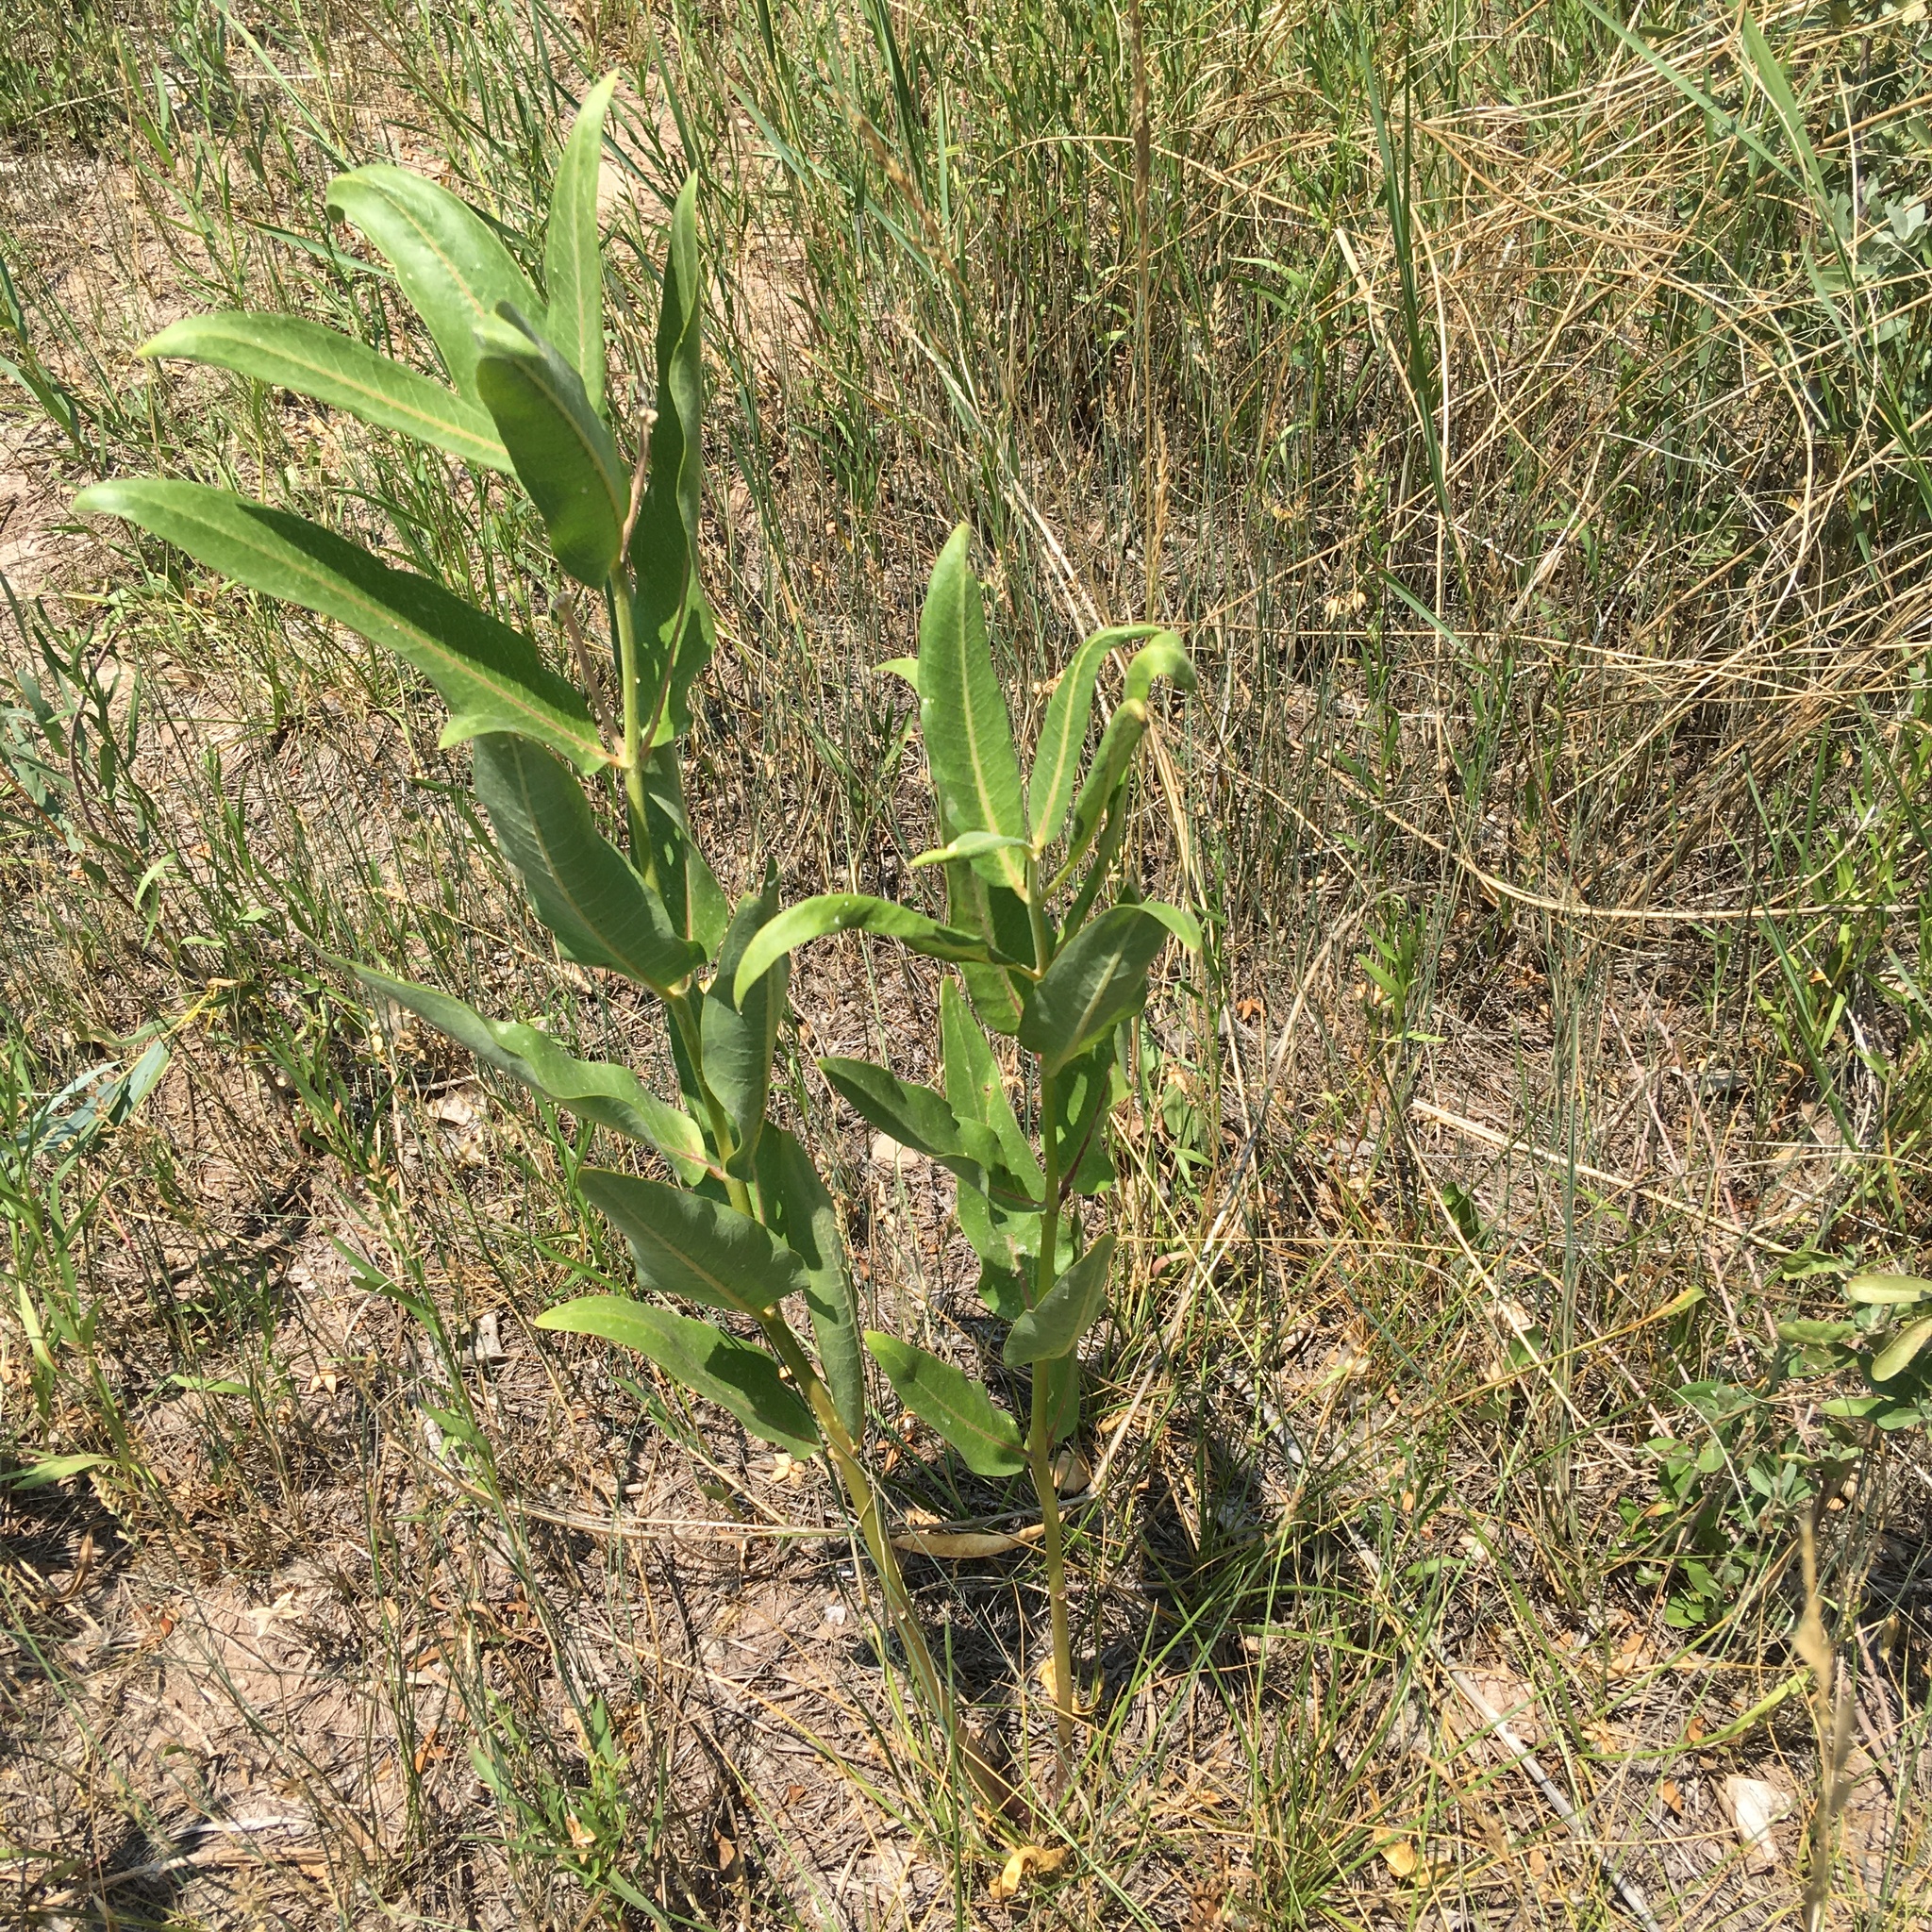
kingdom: Plantae
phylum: Tracheophyta
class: Magnoliopsida
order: Gentianales
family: Apocynaceae
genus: Asclepias
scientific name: Asclepias speciosa
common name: Showy milkweed
